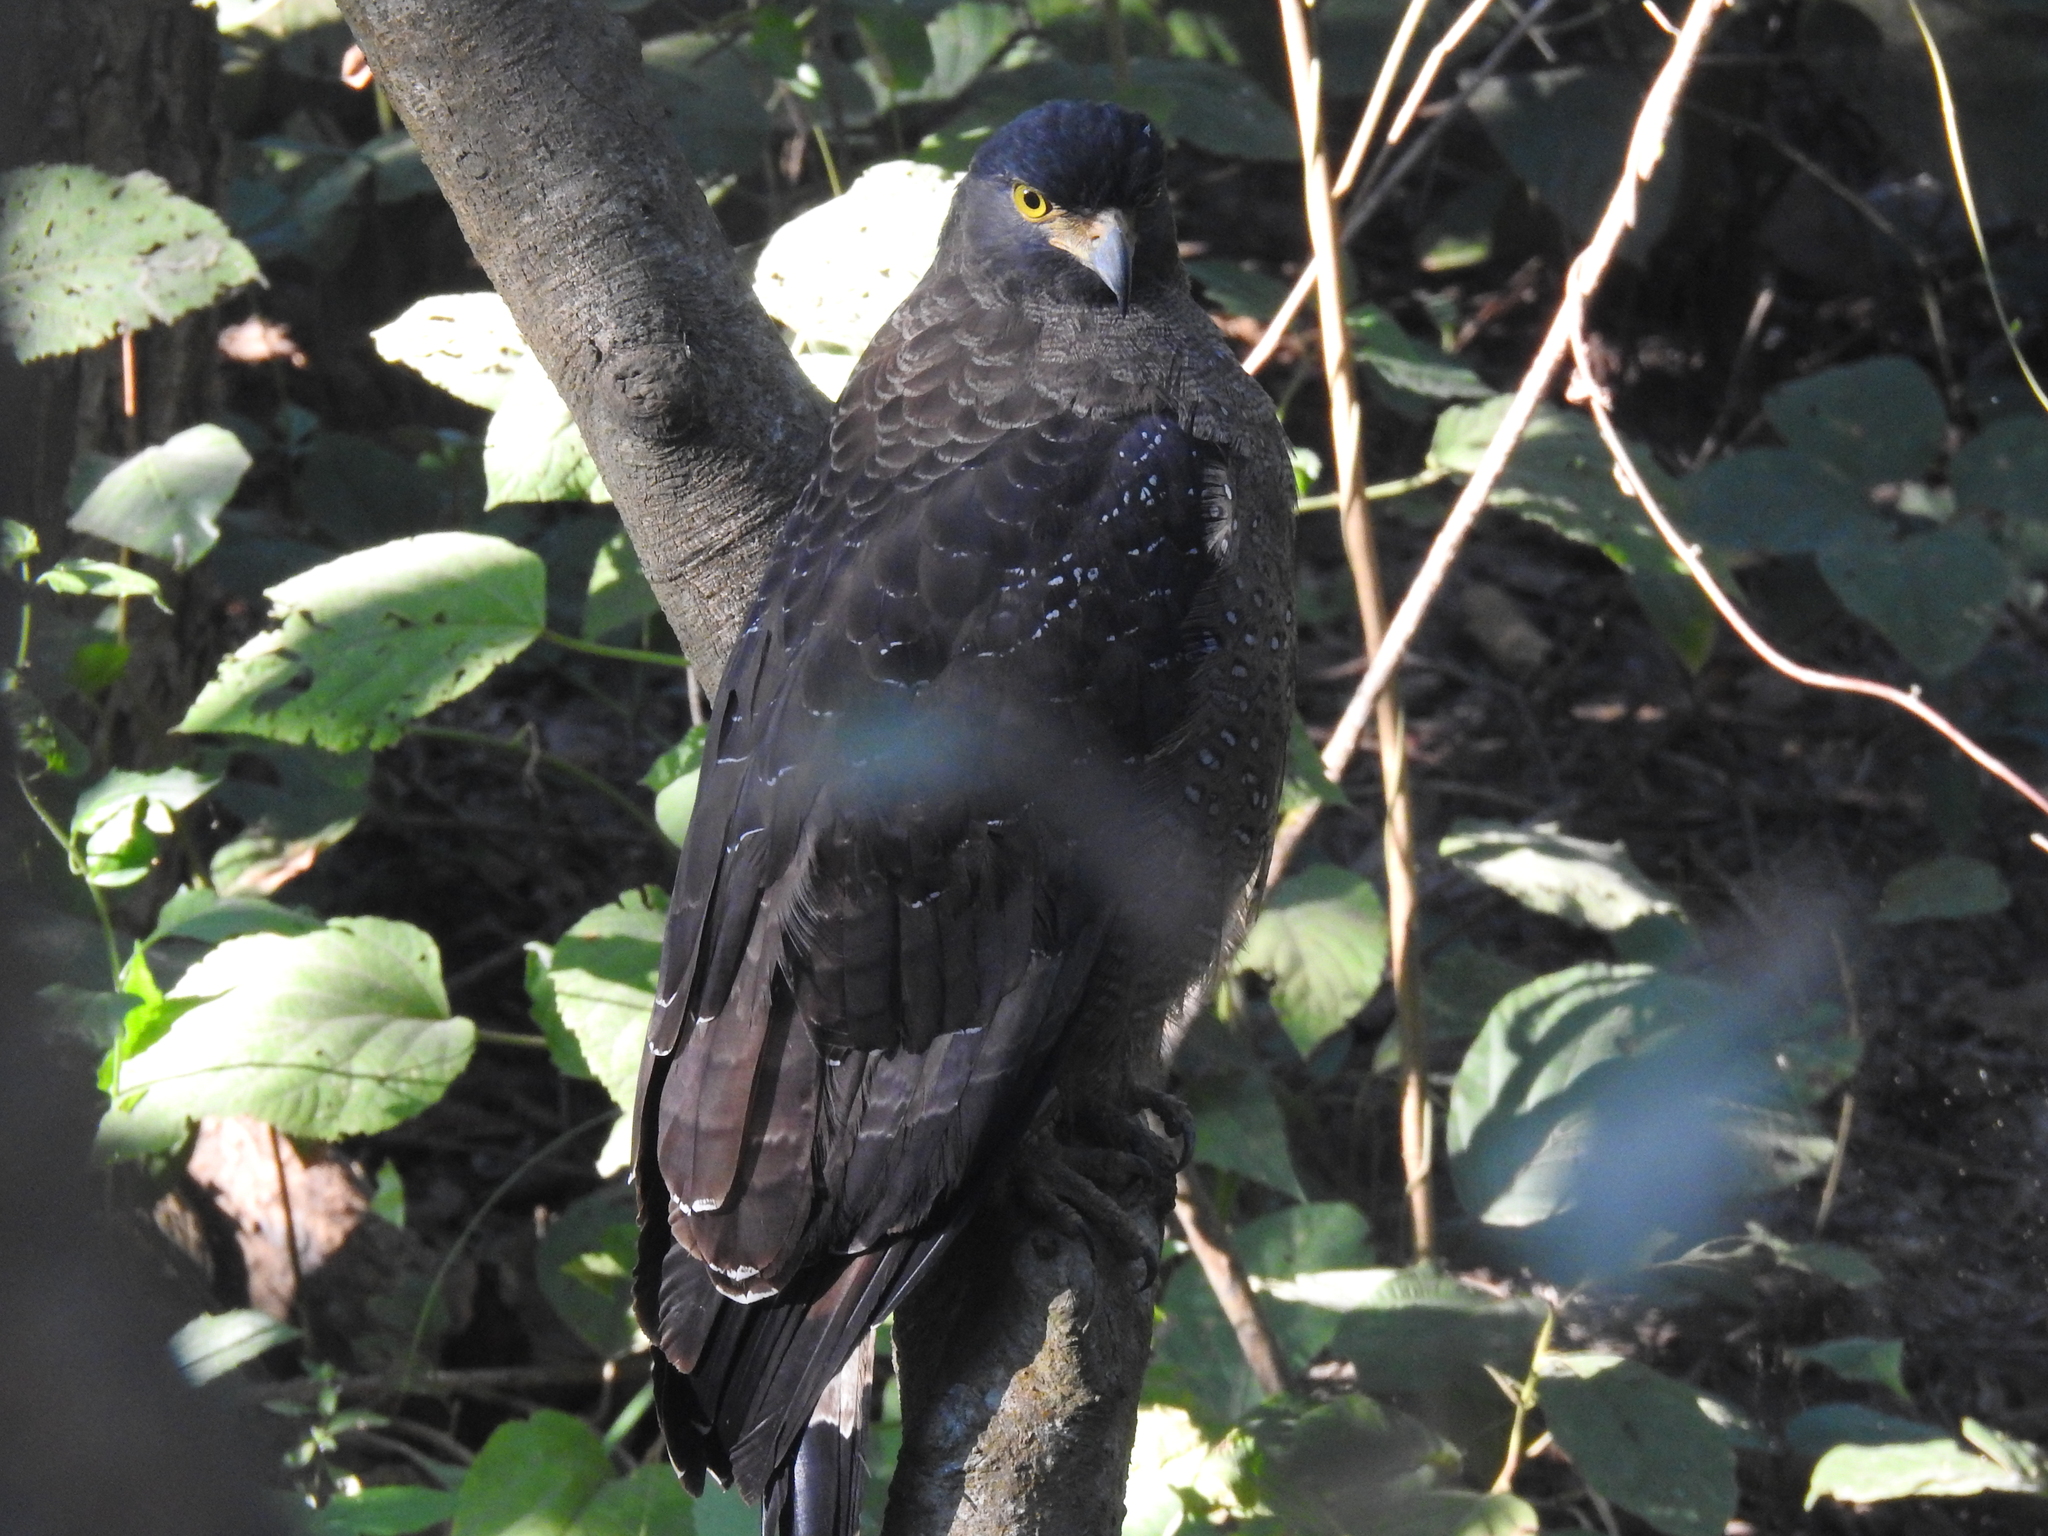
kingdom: Animalia
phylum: Chordata
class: Aves
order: Accipitriformes
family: Accipitridae
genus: Spilornis
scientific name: Spilornis cheela
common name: Crested serpent eagle
